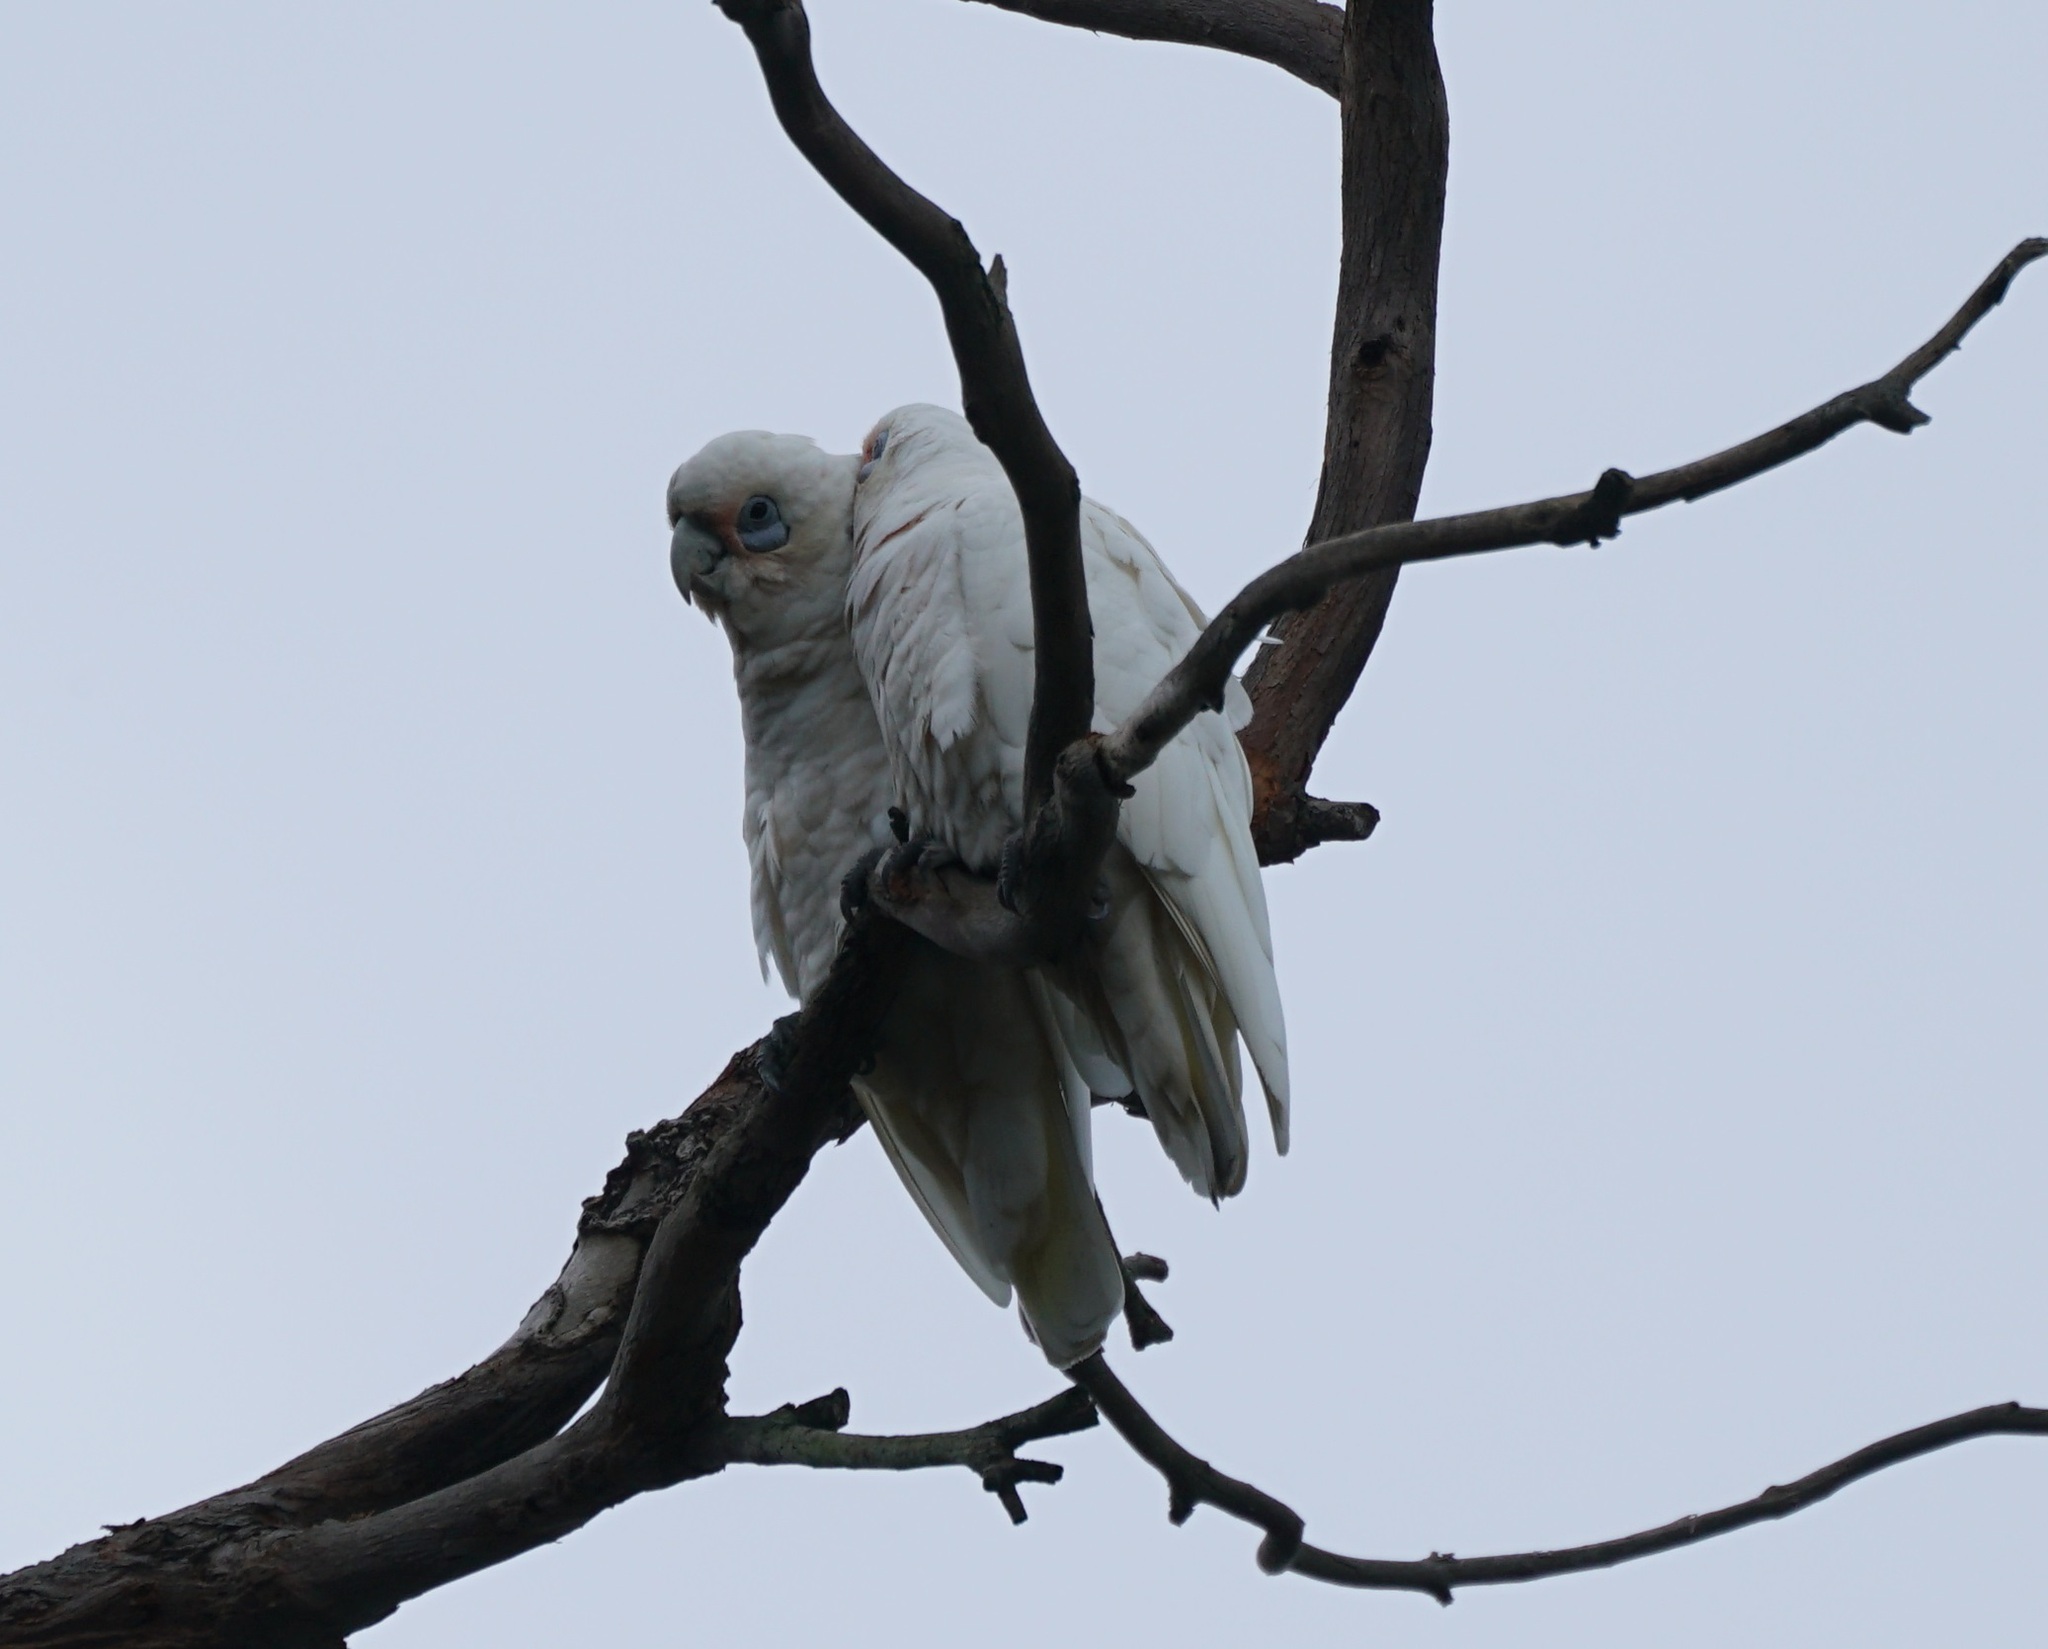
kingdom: Animalia
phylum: Chordata
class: Aves
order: Psittaciformes
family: Psittacidae
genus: Cacatua
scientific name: Cacatua sanguinea
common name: Little corella
